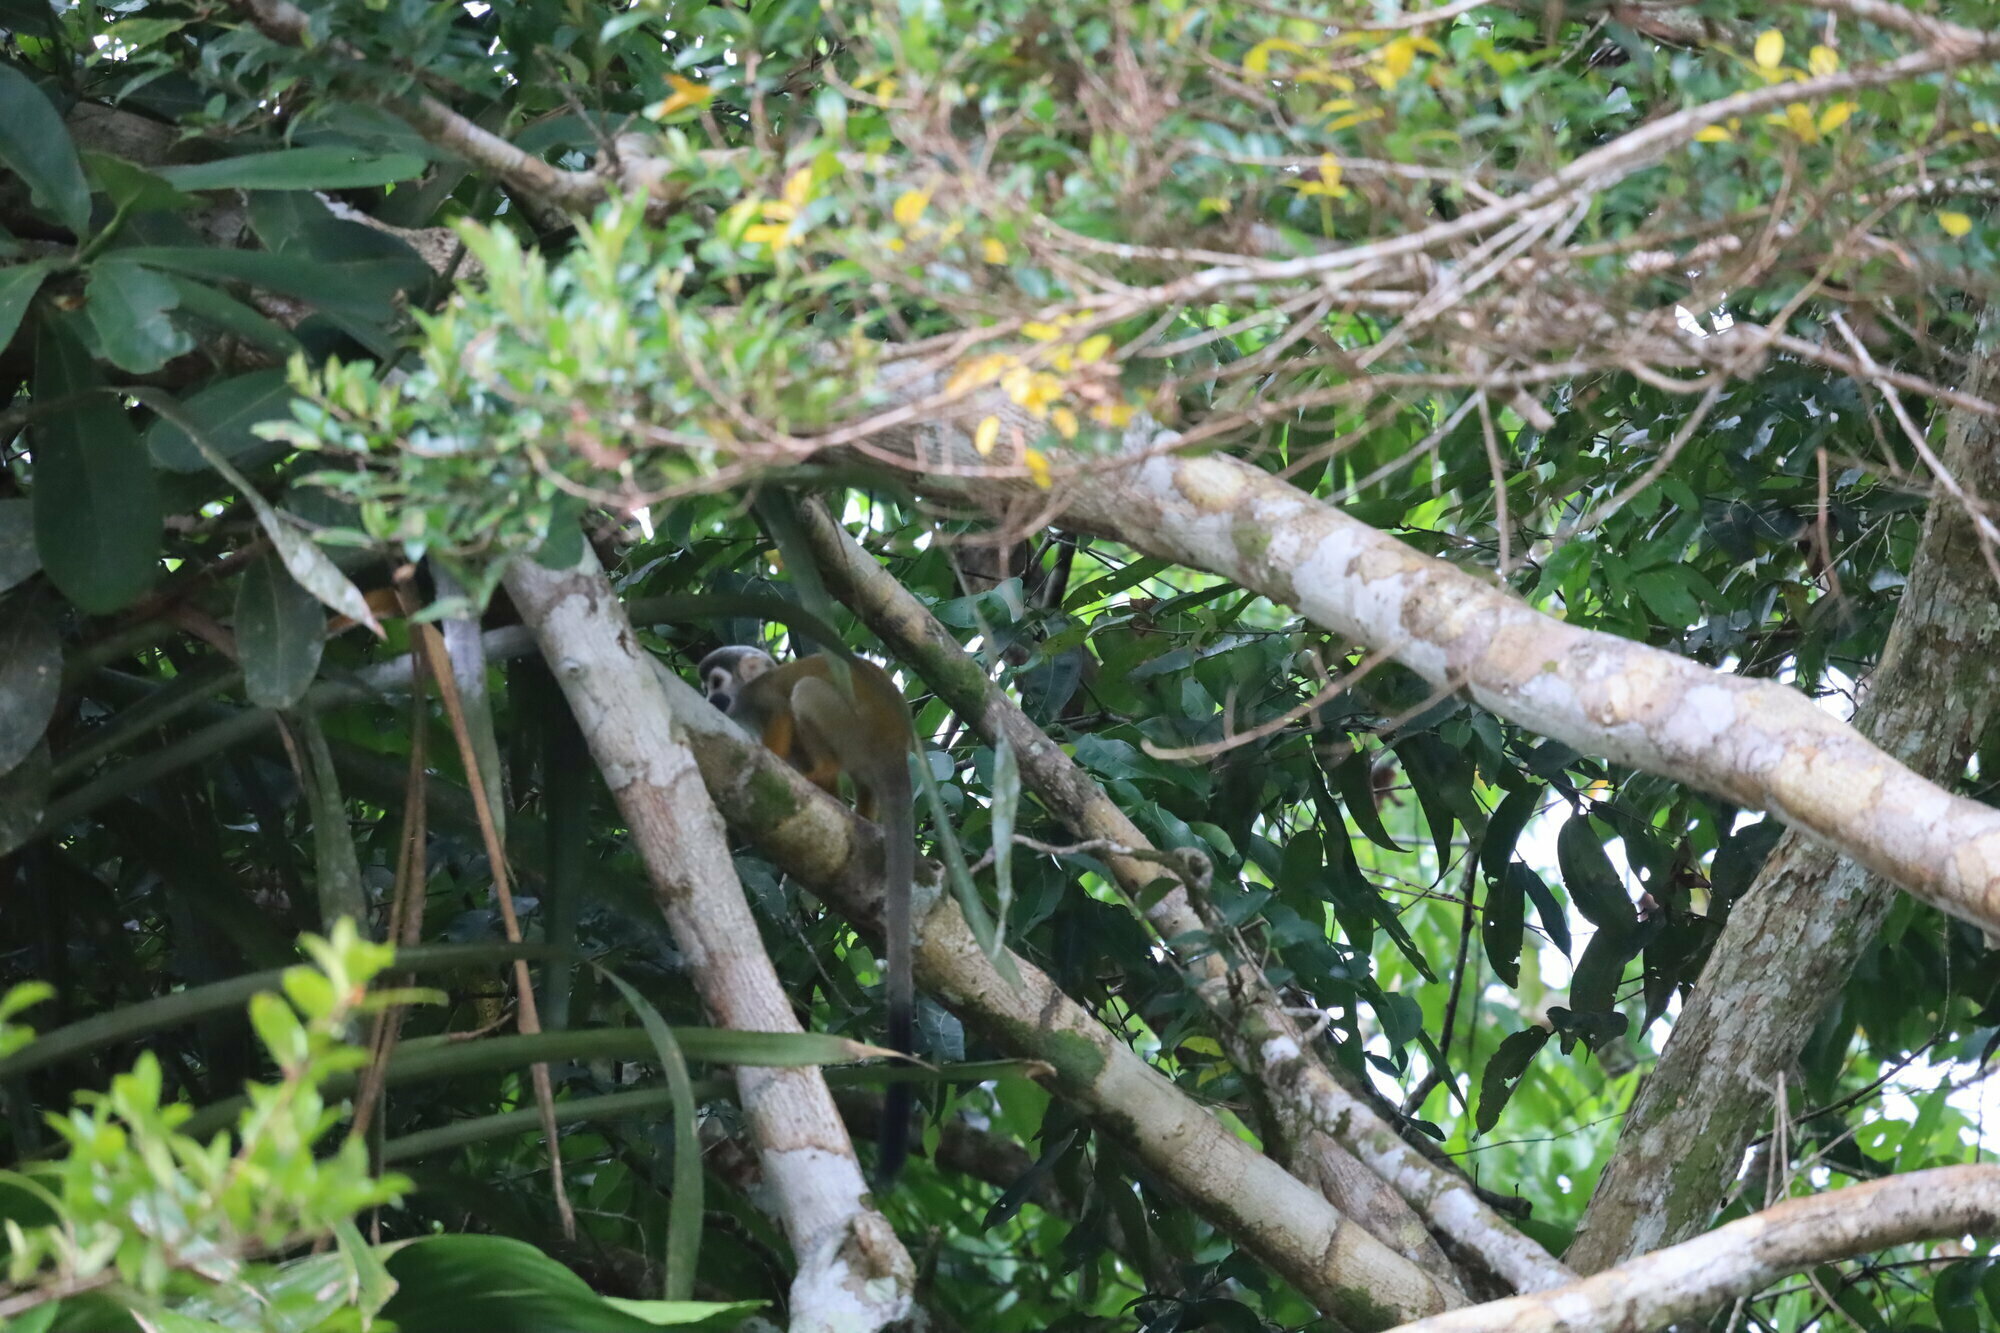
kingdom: Animalia
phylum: Chordata
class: Mammalia
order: Primates
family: Cebidae
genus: Saimiri
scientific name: Saimiri cassiquiarensis
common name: Humboldt’s squirrel monkey
